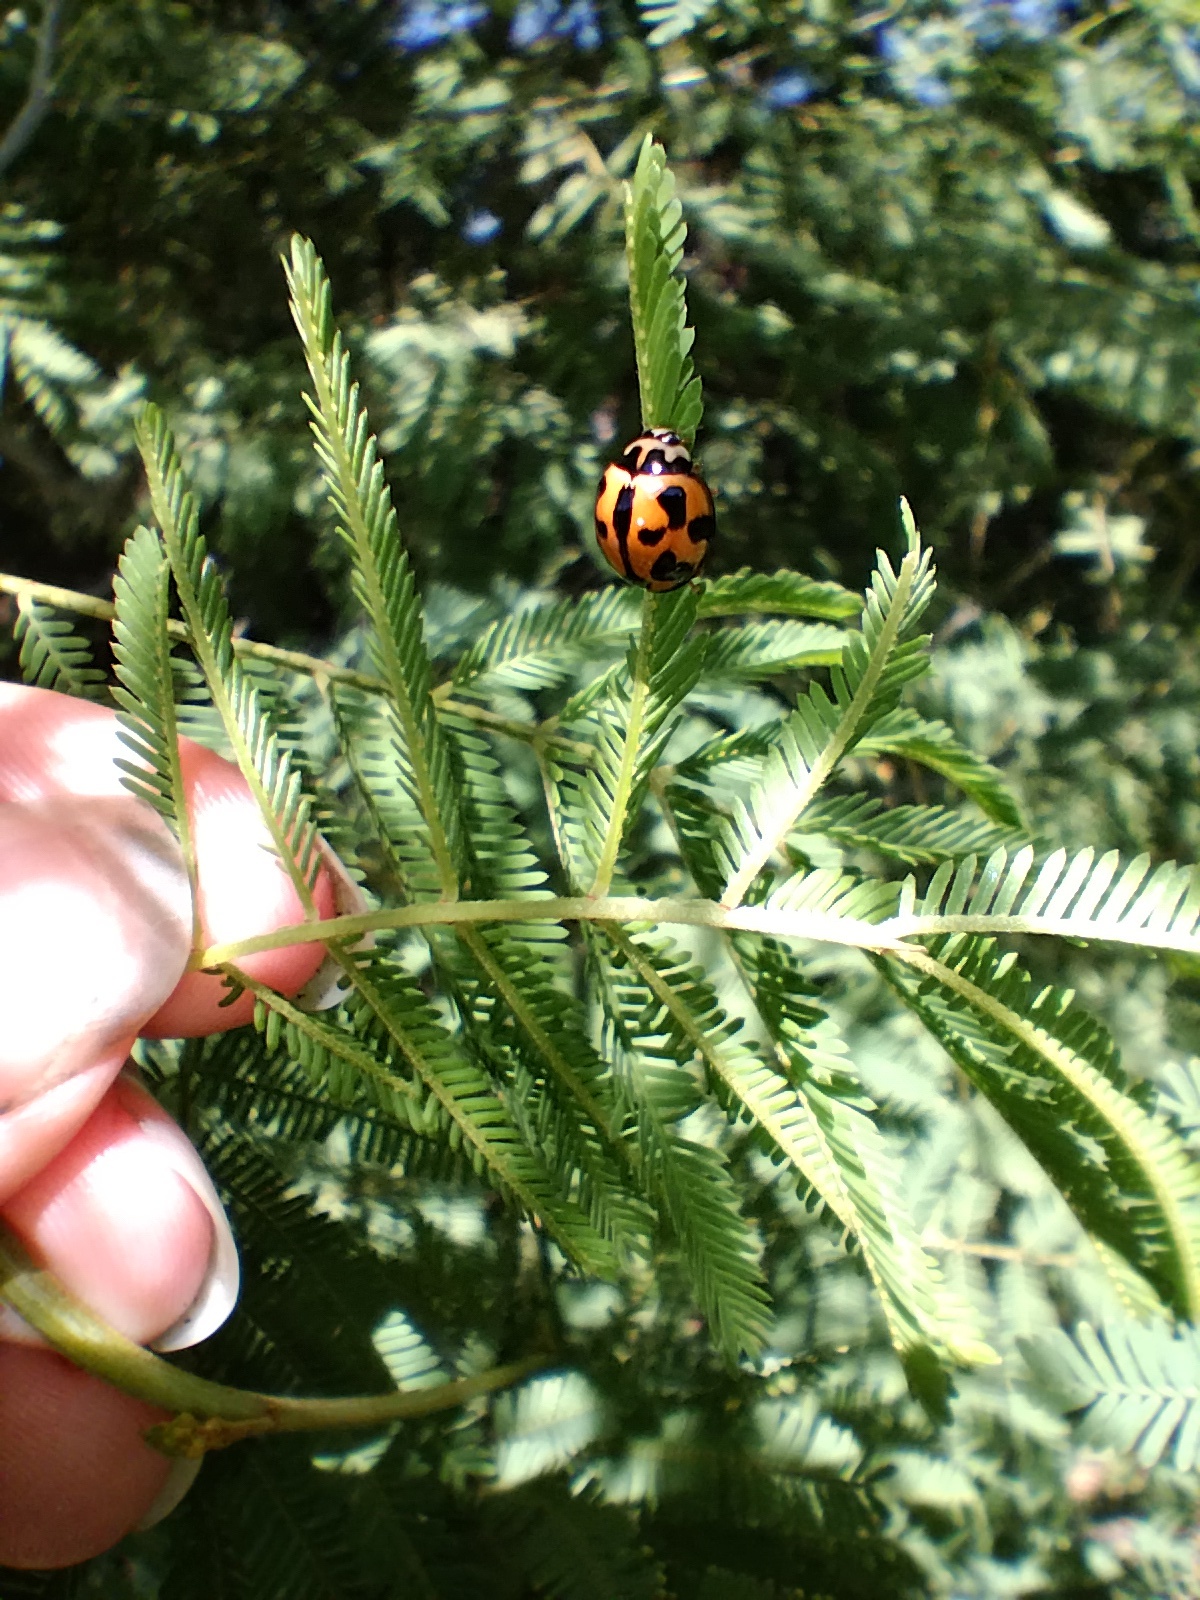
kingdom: Animalia
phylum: Arthropoda
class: Insecta
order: Coleoptera
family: Coccinellidae
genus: Coelophora
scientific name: Coelophora inaequalis
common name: Common australian lady beetle
